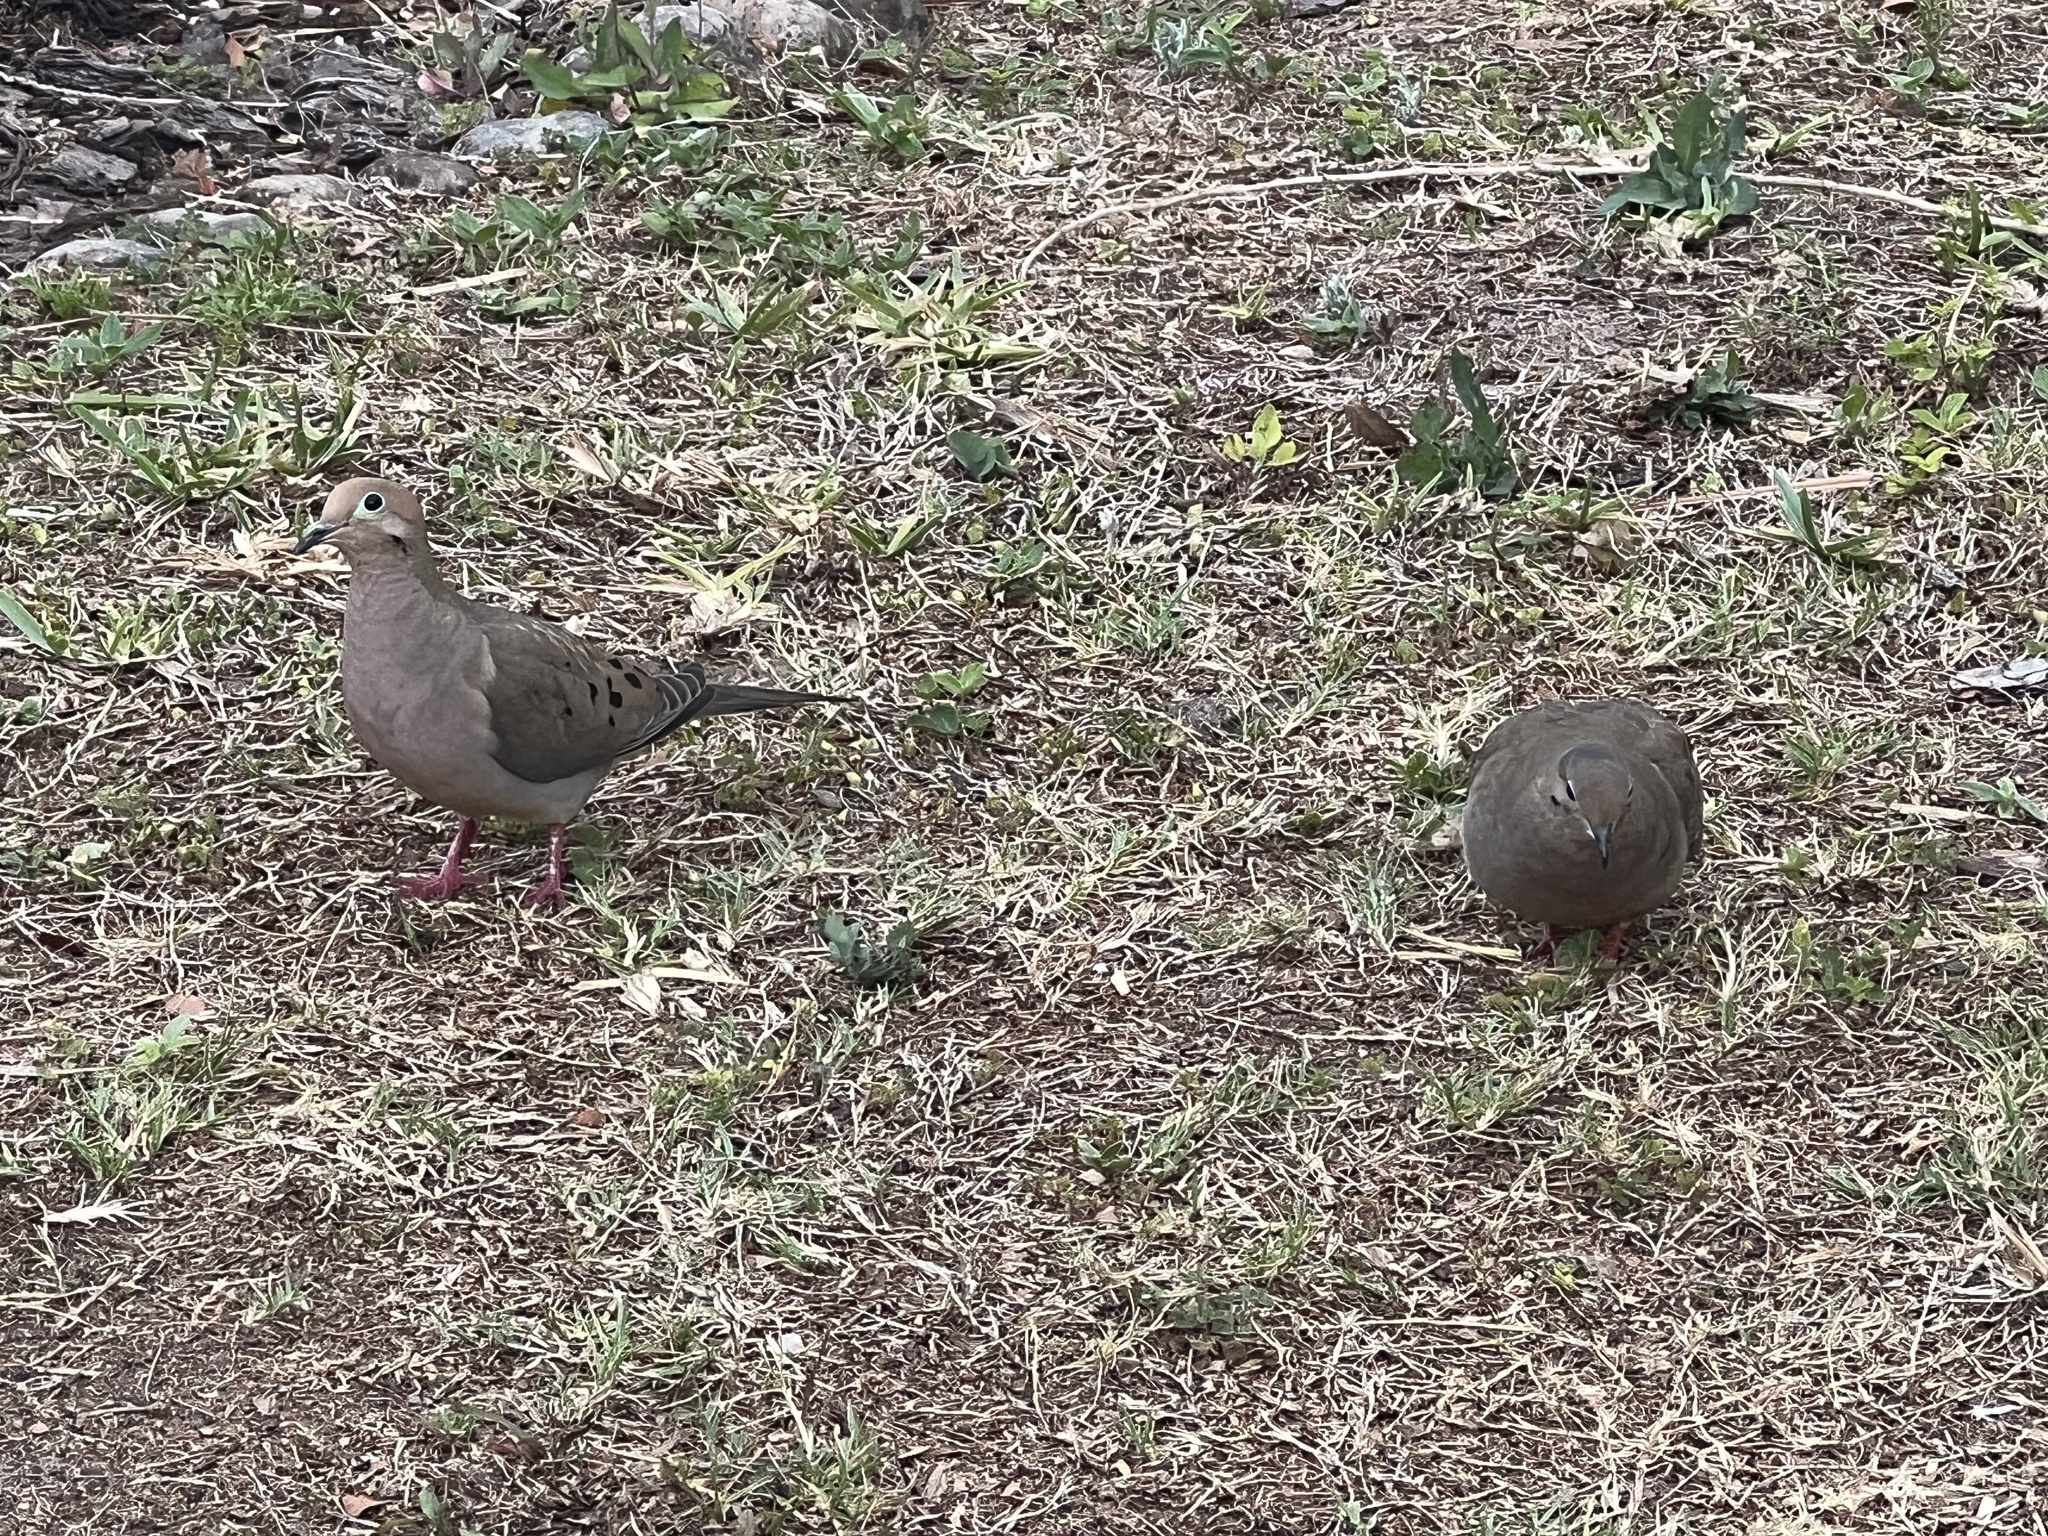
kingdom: Animalia
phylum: Chordata
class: Aves
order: Columbiformes
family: Columbidae
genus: Zenaida
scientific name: Zenaida macroura
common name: Mourning dove
